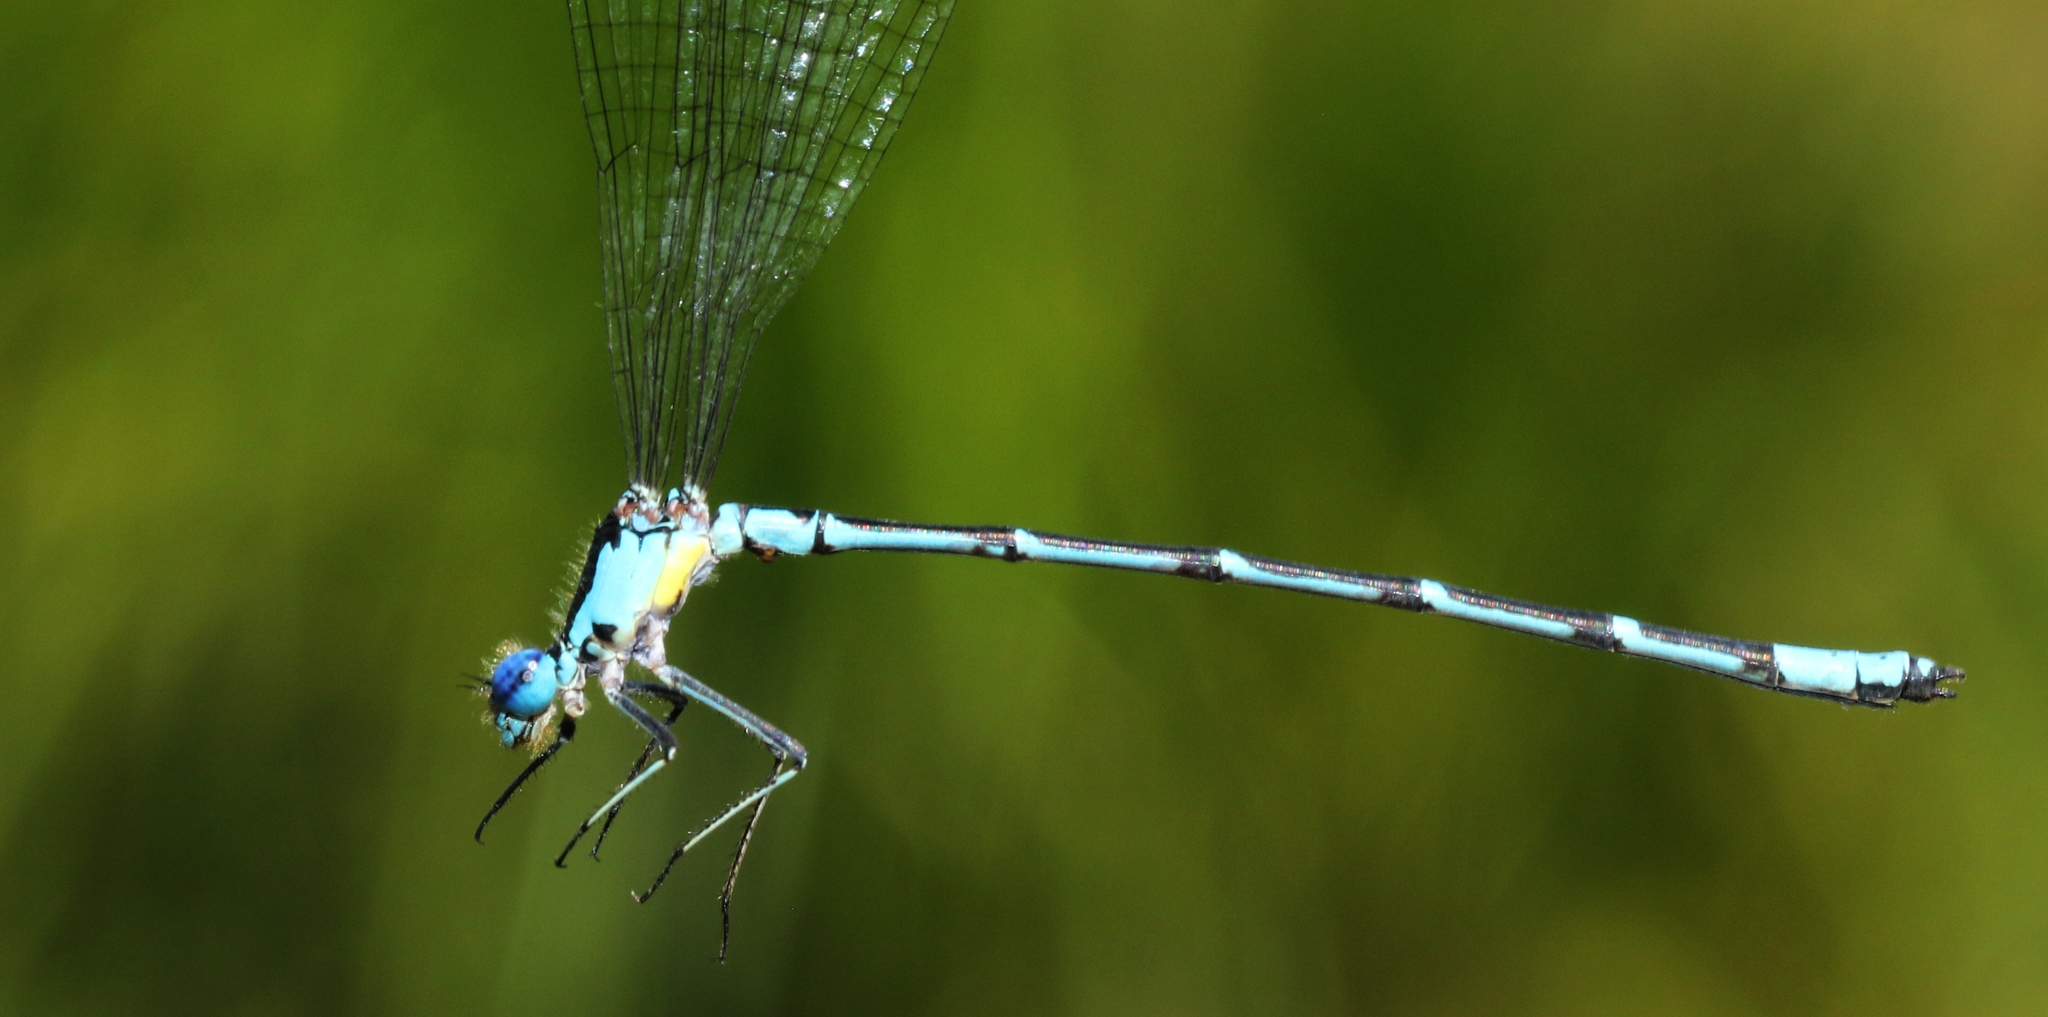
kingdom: Animalia
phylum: Arthropoda
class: Insecta
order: Odonata
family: Coenagrionidae
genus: Chromagrion
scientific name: Chromagrion conditum
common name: Aurora damsel
